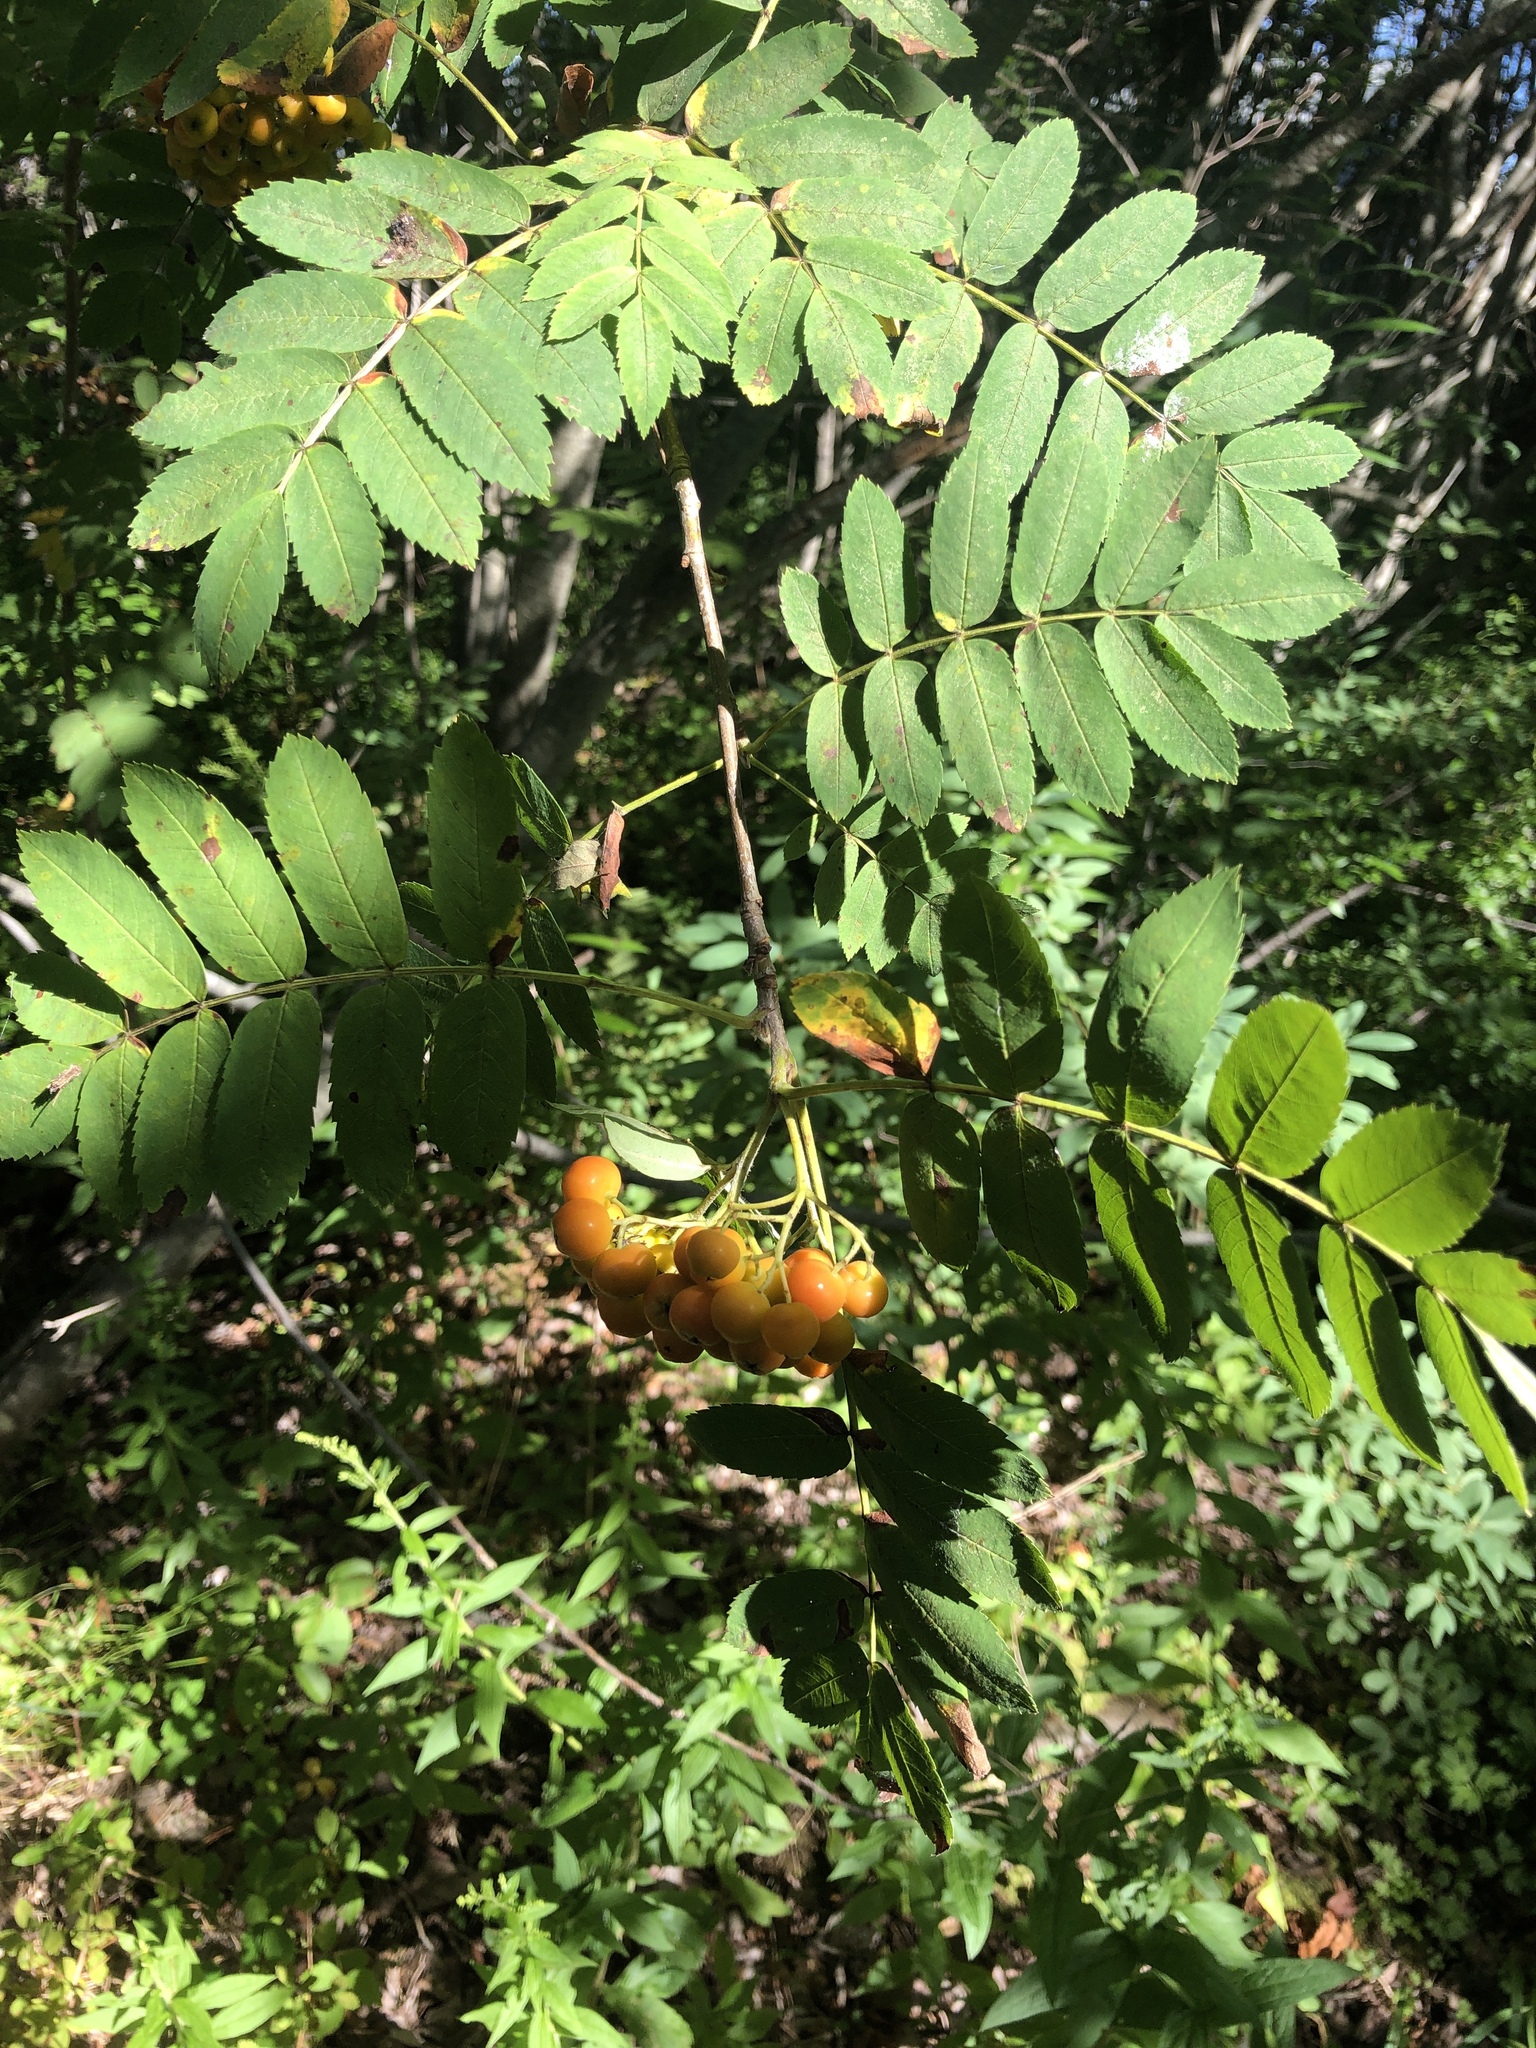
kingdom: Plantae
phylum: Tracheophyta
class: Magnoliopsida
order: Rosales
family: Rosaceae
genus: Sorbus
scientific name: Sorbus aucuparia
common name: Rowan
